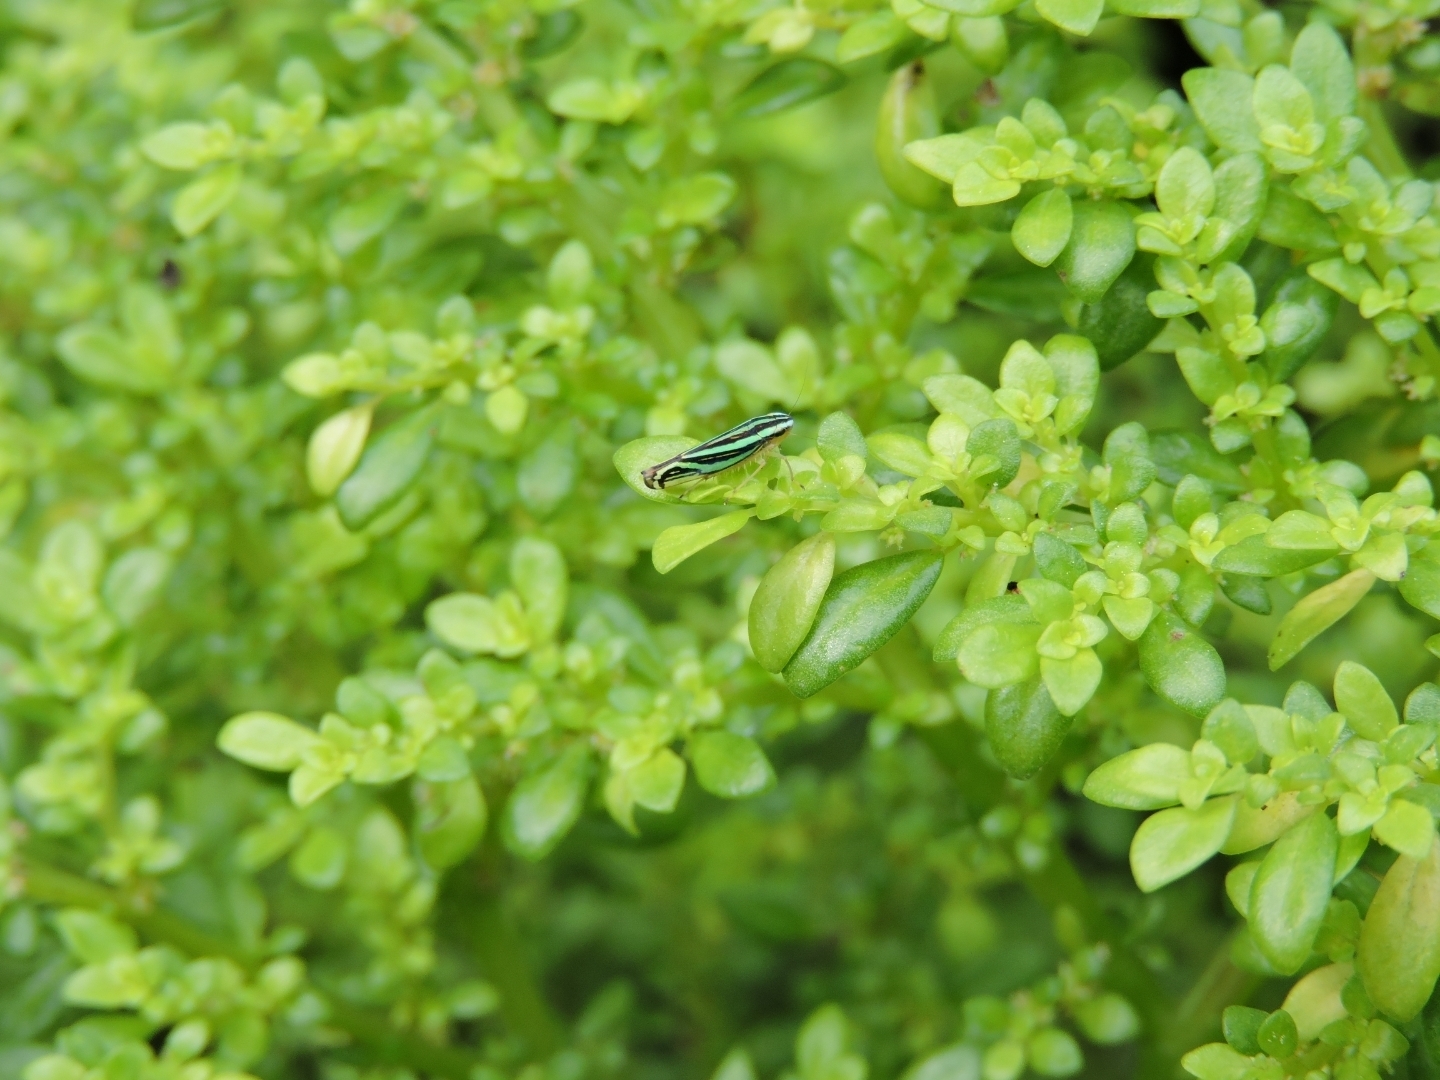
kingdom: Animalia
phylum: Arthropoda
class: Insecta
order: Hemiptera
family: Cicadellidae
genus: Sibovia
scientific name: Sibovia sagata
